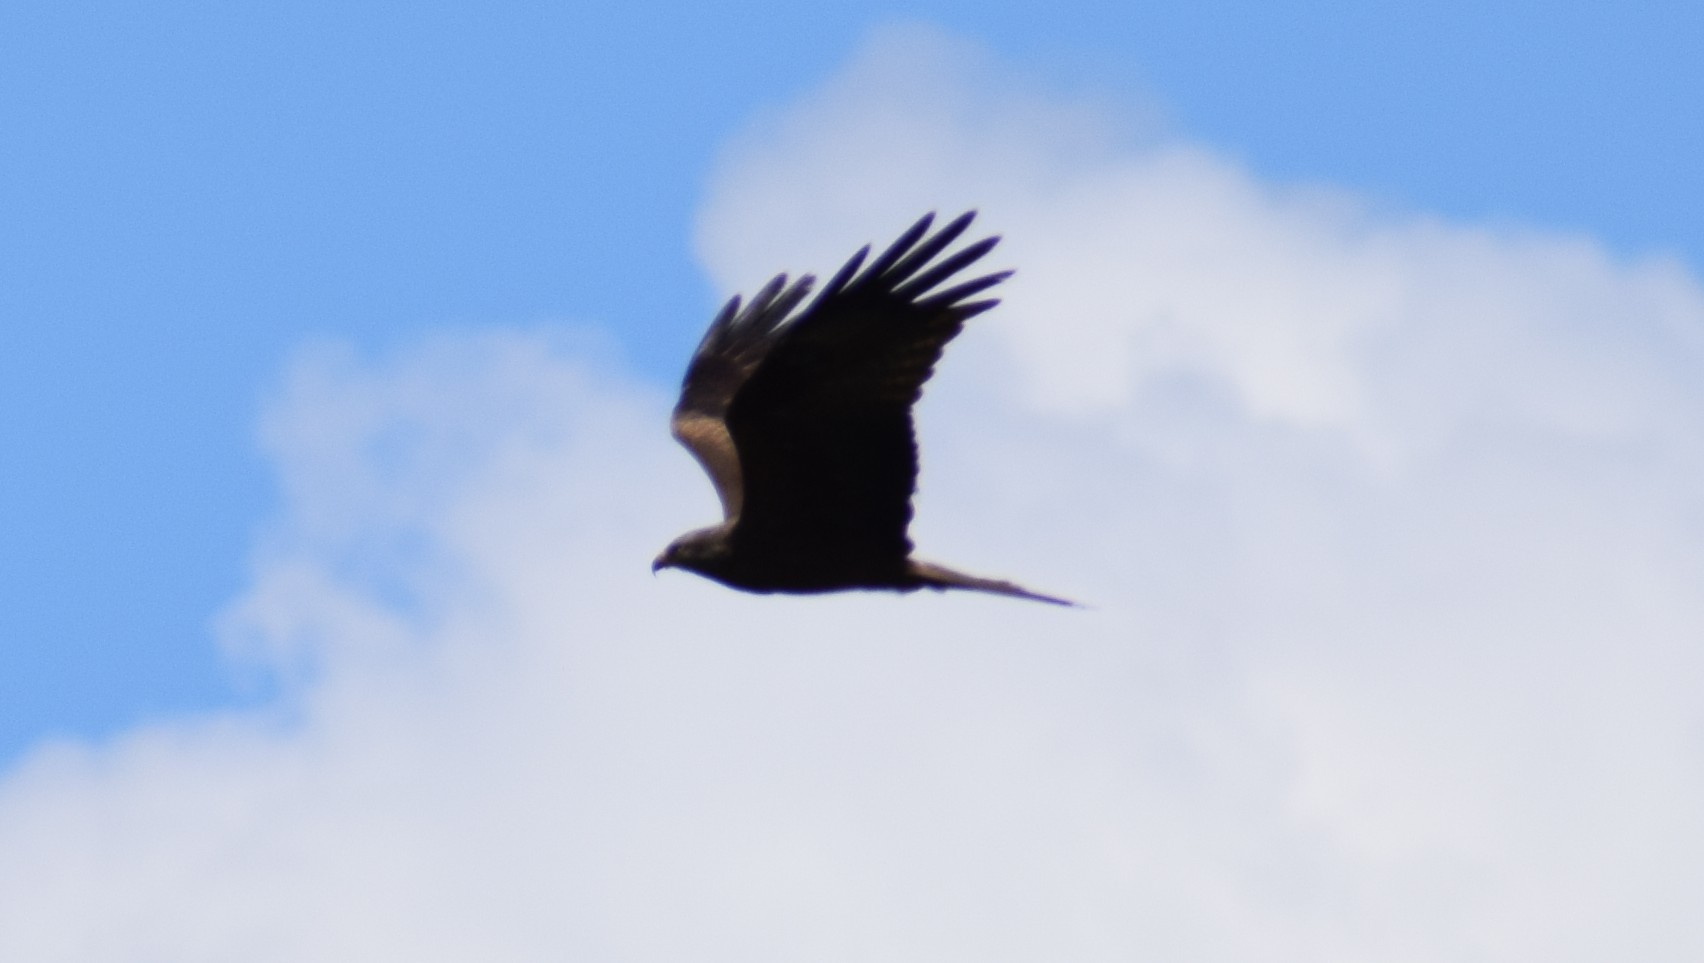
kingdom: Animalia
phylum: Chordata
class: Aves
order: Accipitriformes
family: Accipitridae
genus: Milvus
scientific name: Milvus migrans
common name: Black kite
